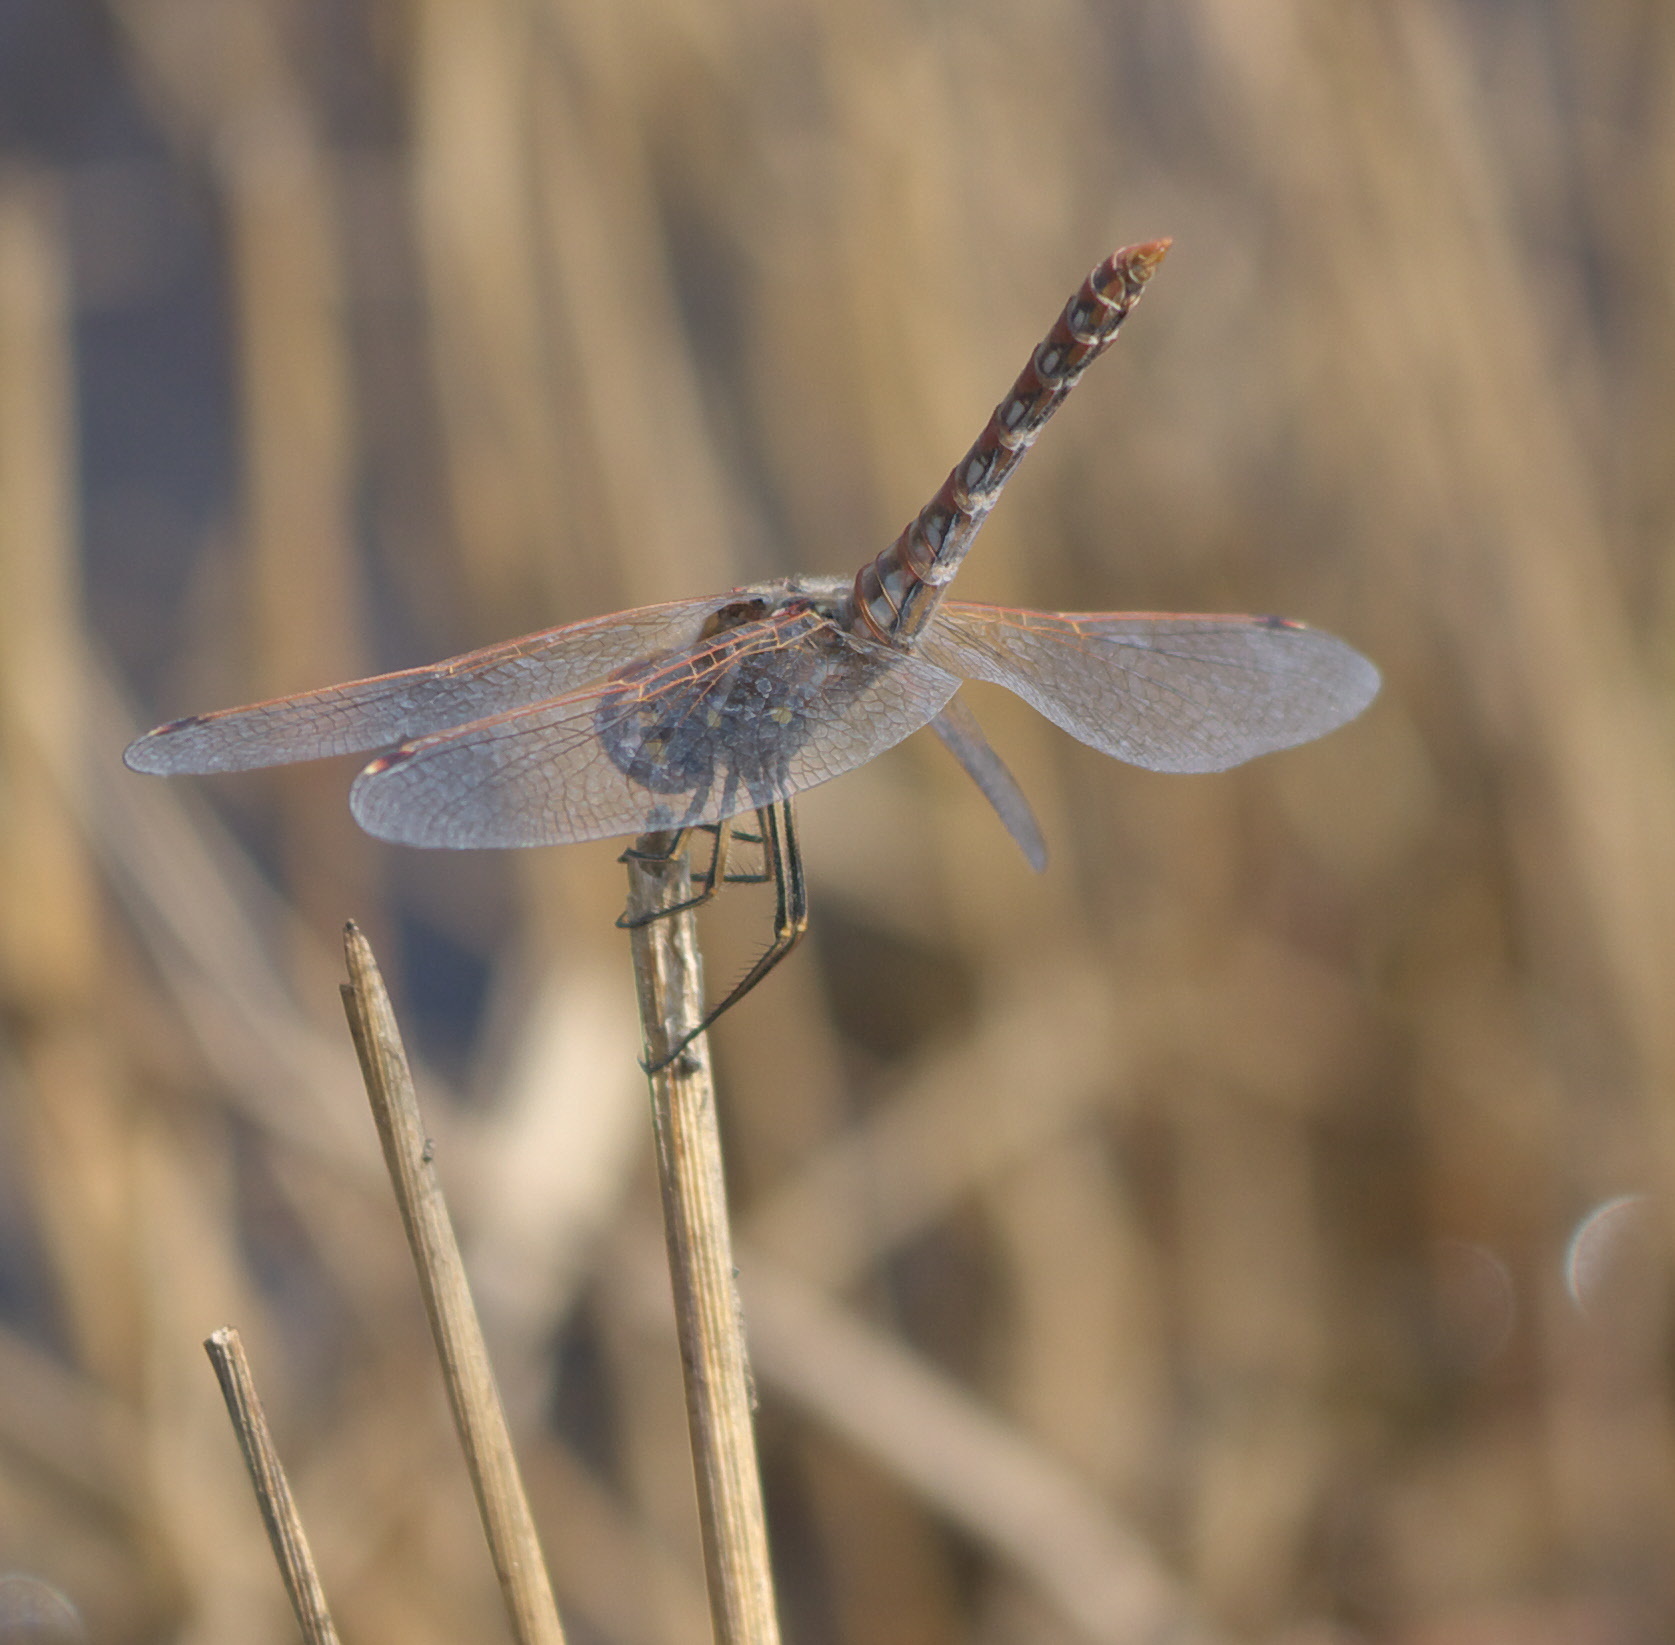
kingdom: Animalia
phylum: Arthropoda
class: Insecta
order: Odonata
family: Libellulidae
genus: Sympetrum
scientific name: Sympetrum corruptum
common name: Variegated meadowhawk
